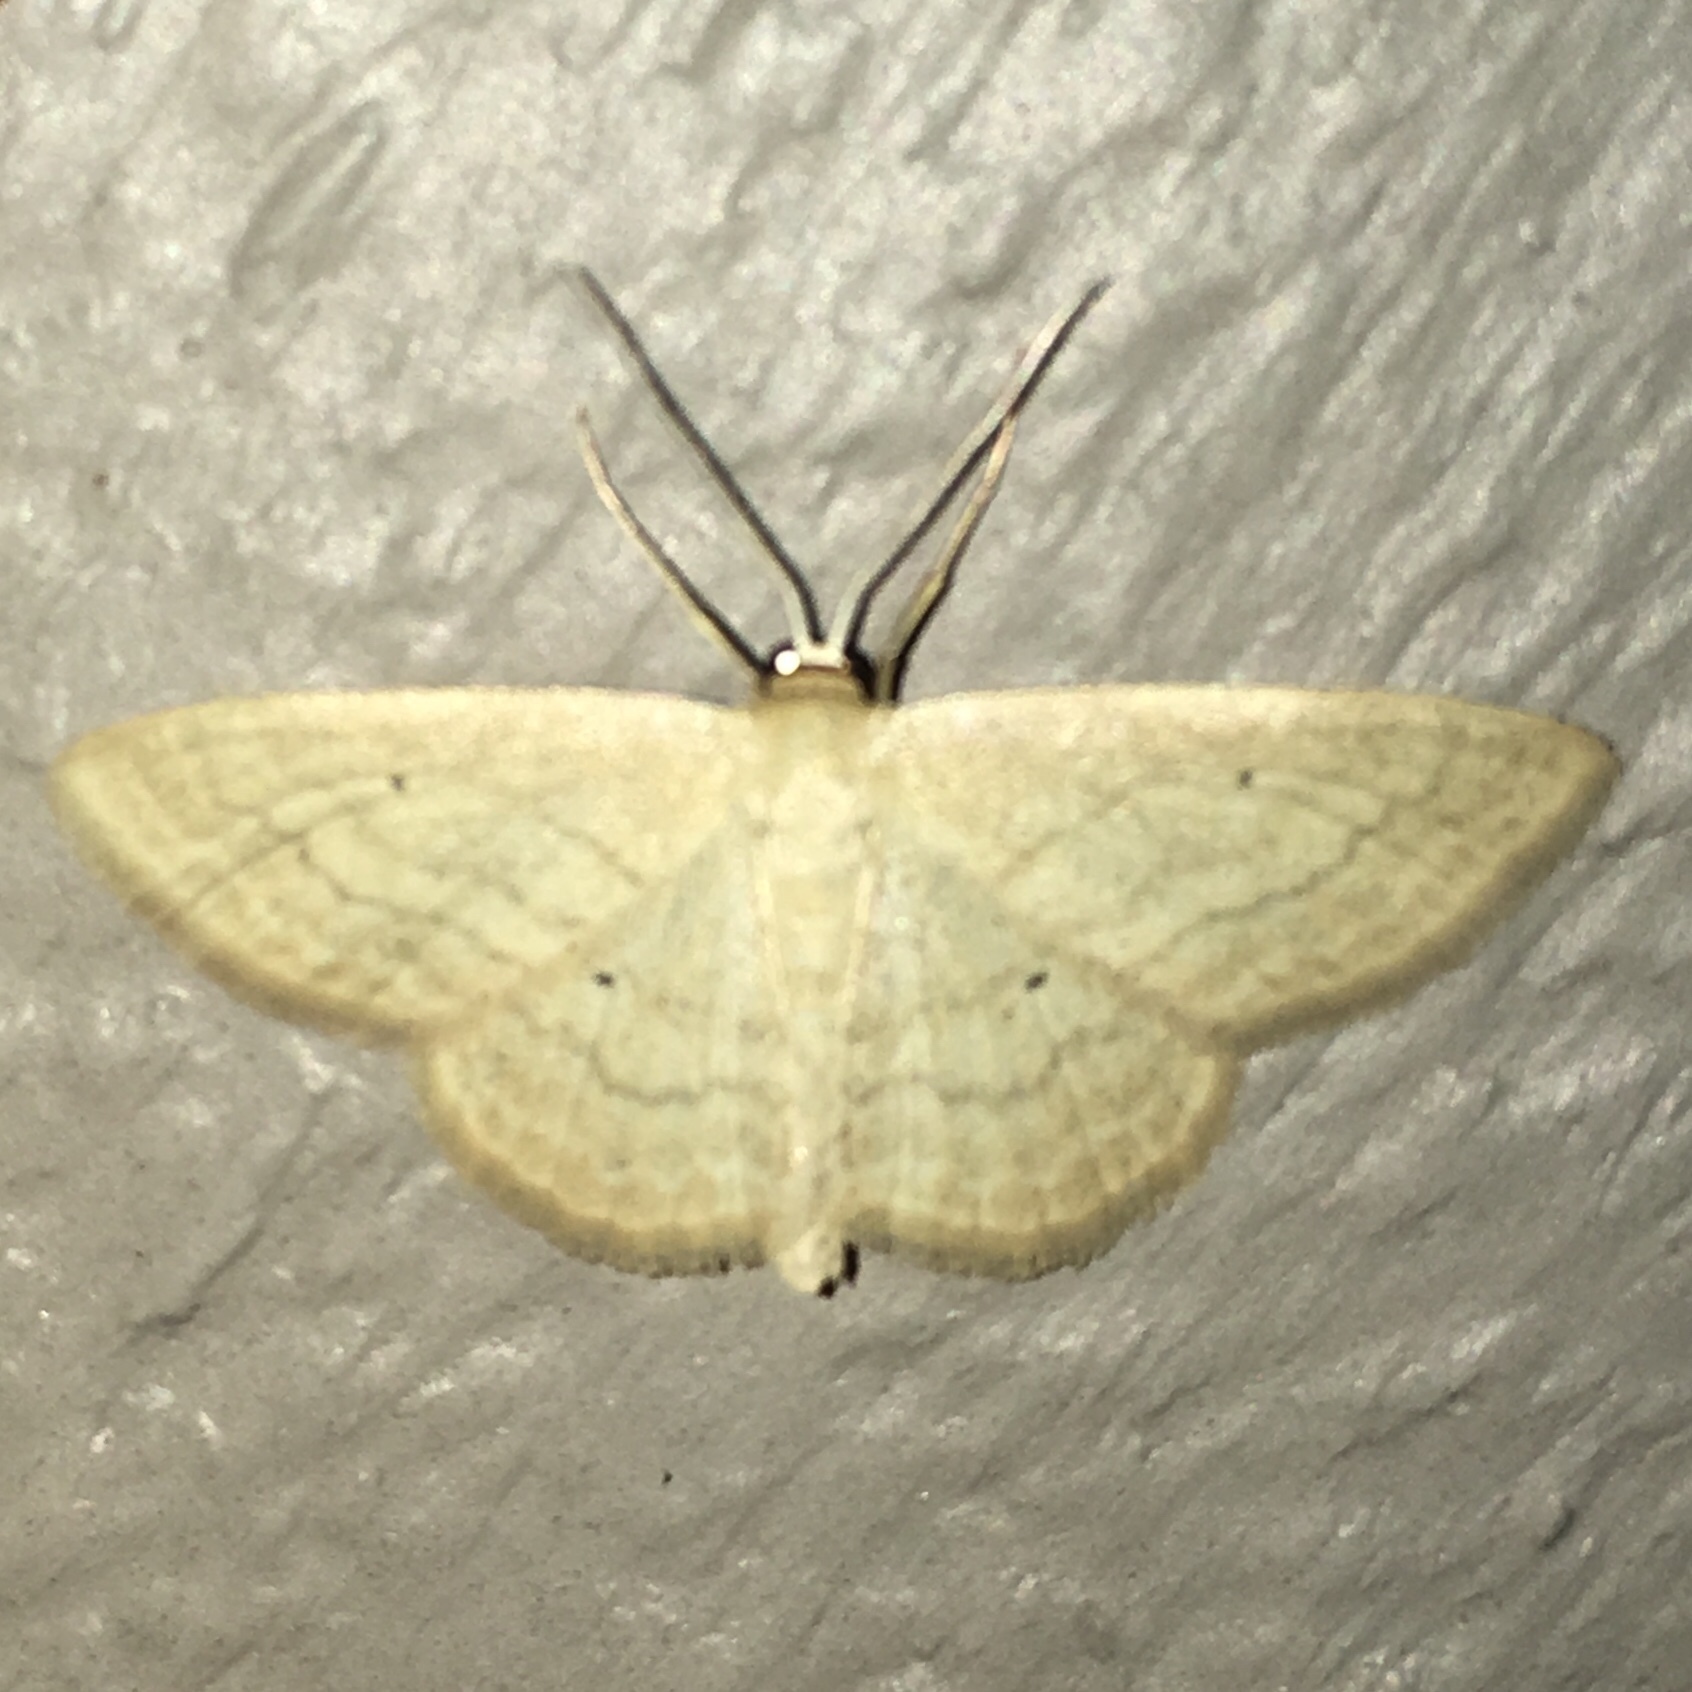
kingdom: Animalia
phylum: Arthropoda
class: Insecta
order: Lepidoptera
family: Geometridae
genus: Scopula
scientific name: Scopula inductata
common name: Soft-lined wave
